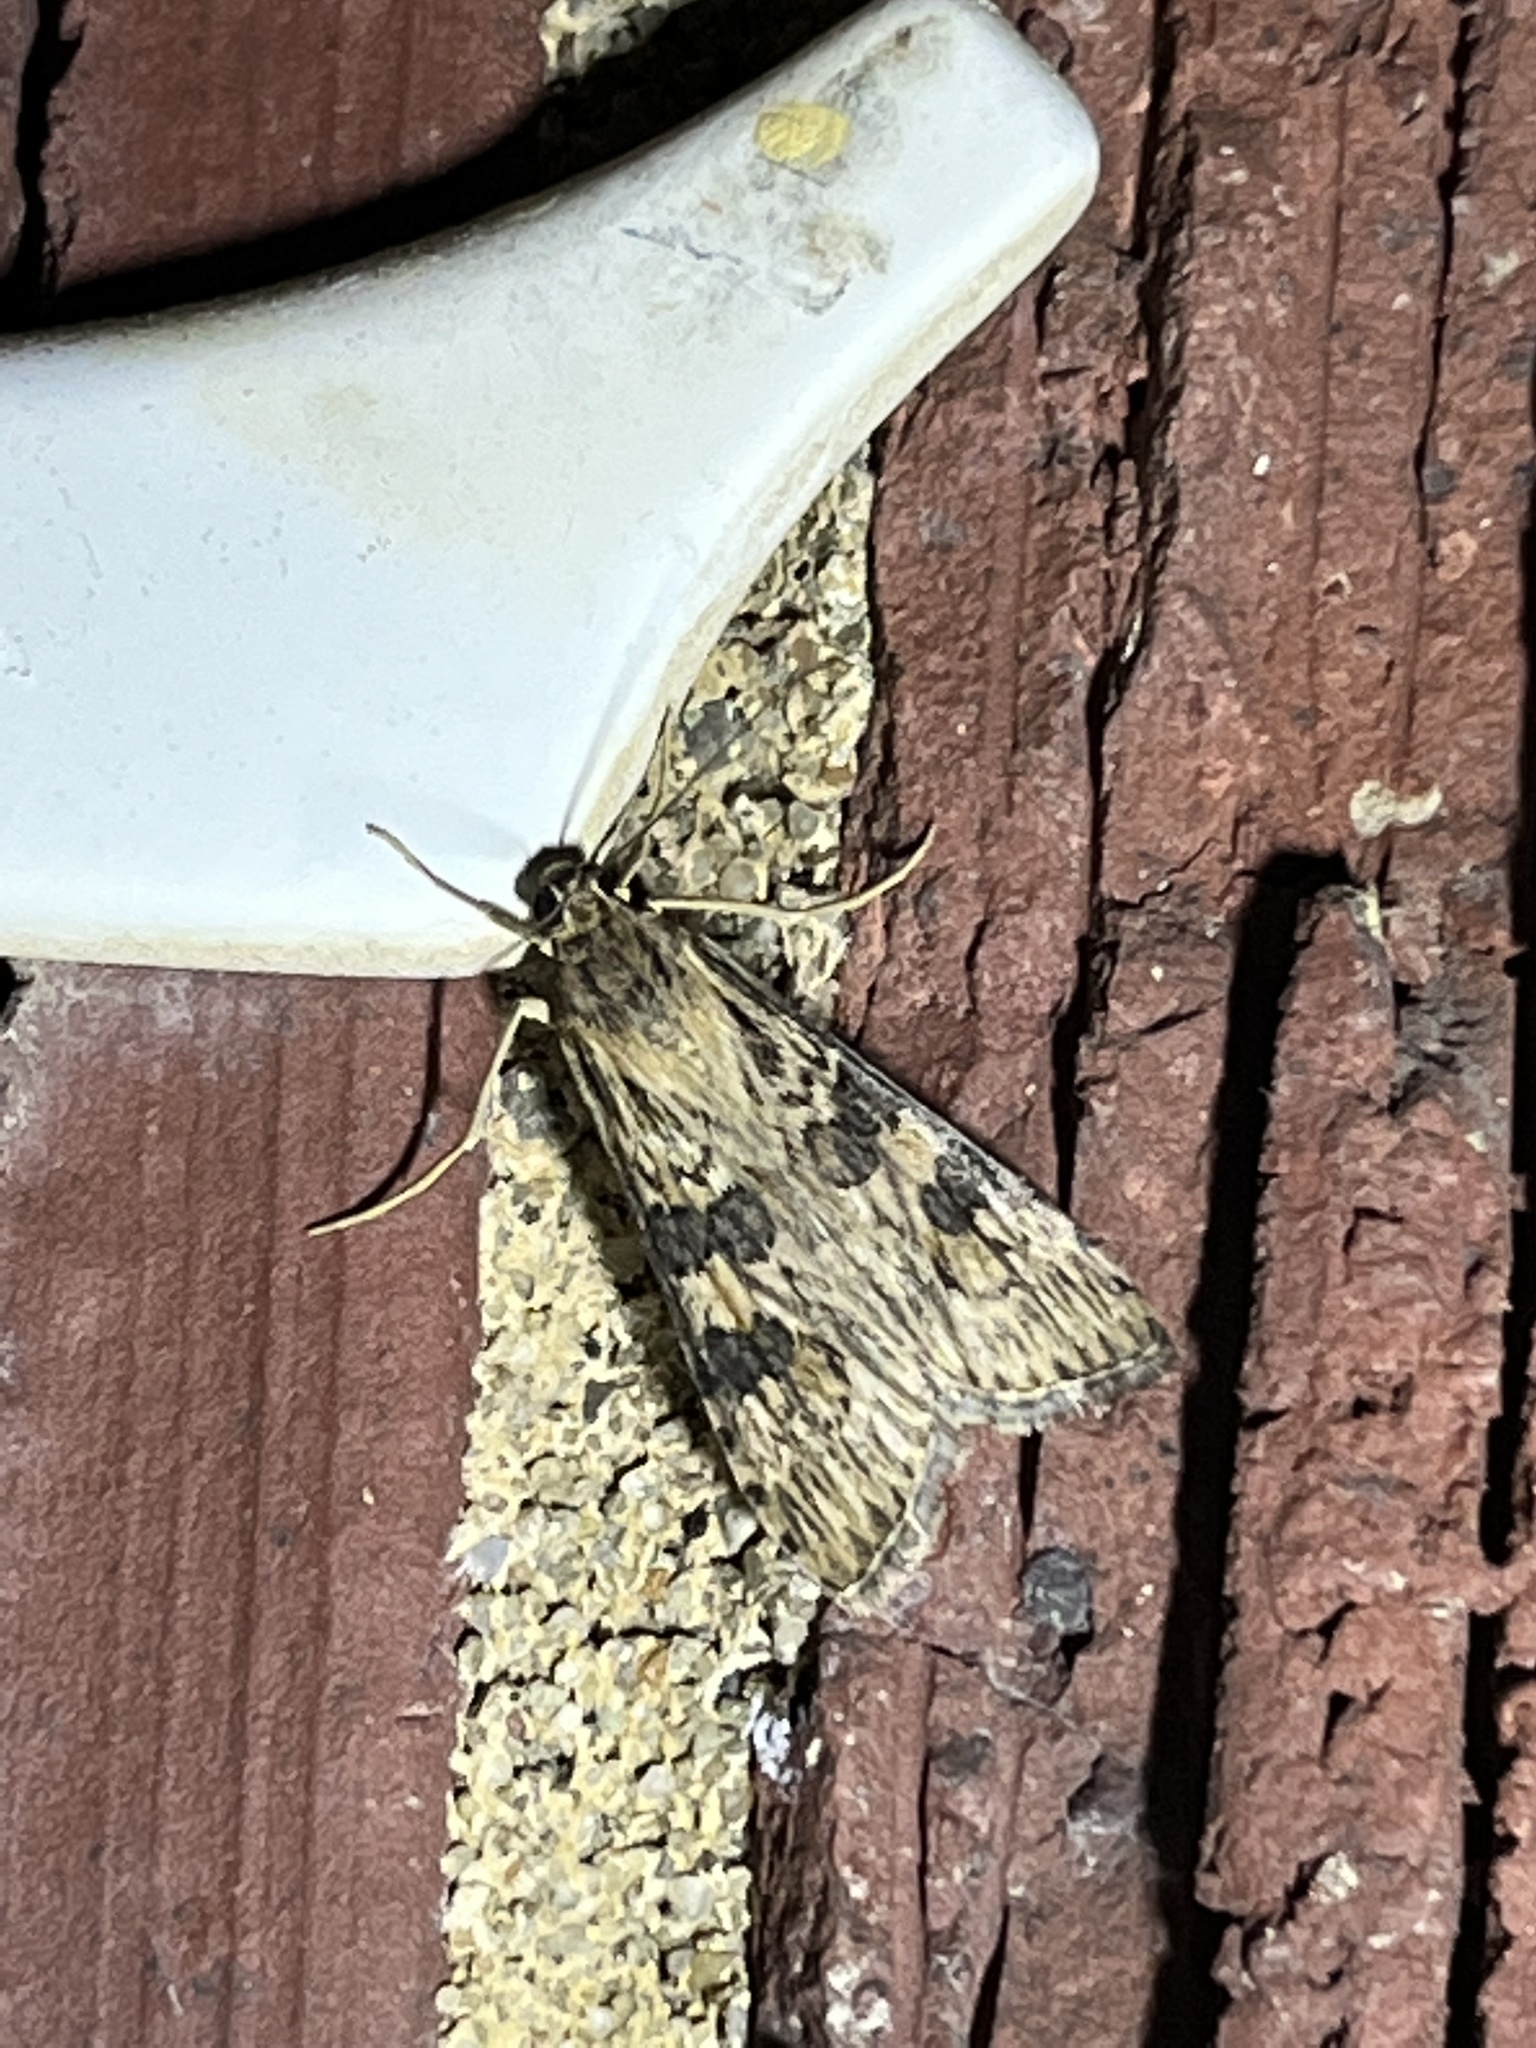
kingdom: Animalia
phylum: Arthropoda
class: Insecta
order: Lepidoptera
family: Crambidae
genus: Nomophila
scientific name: Nomophila nearctica
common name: American rush veneer
